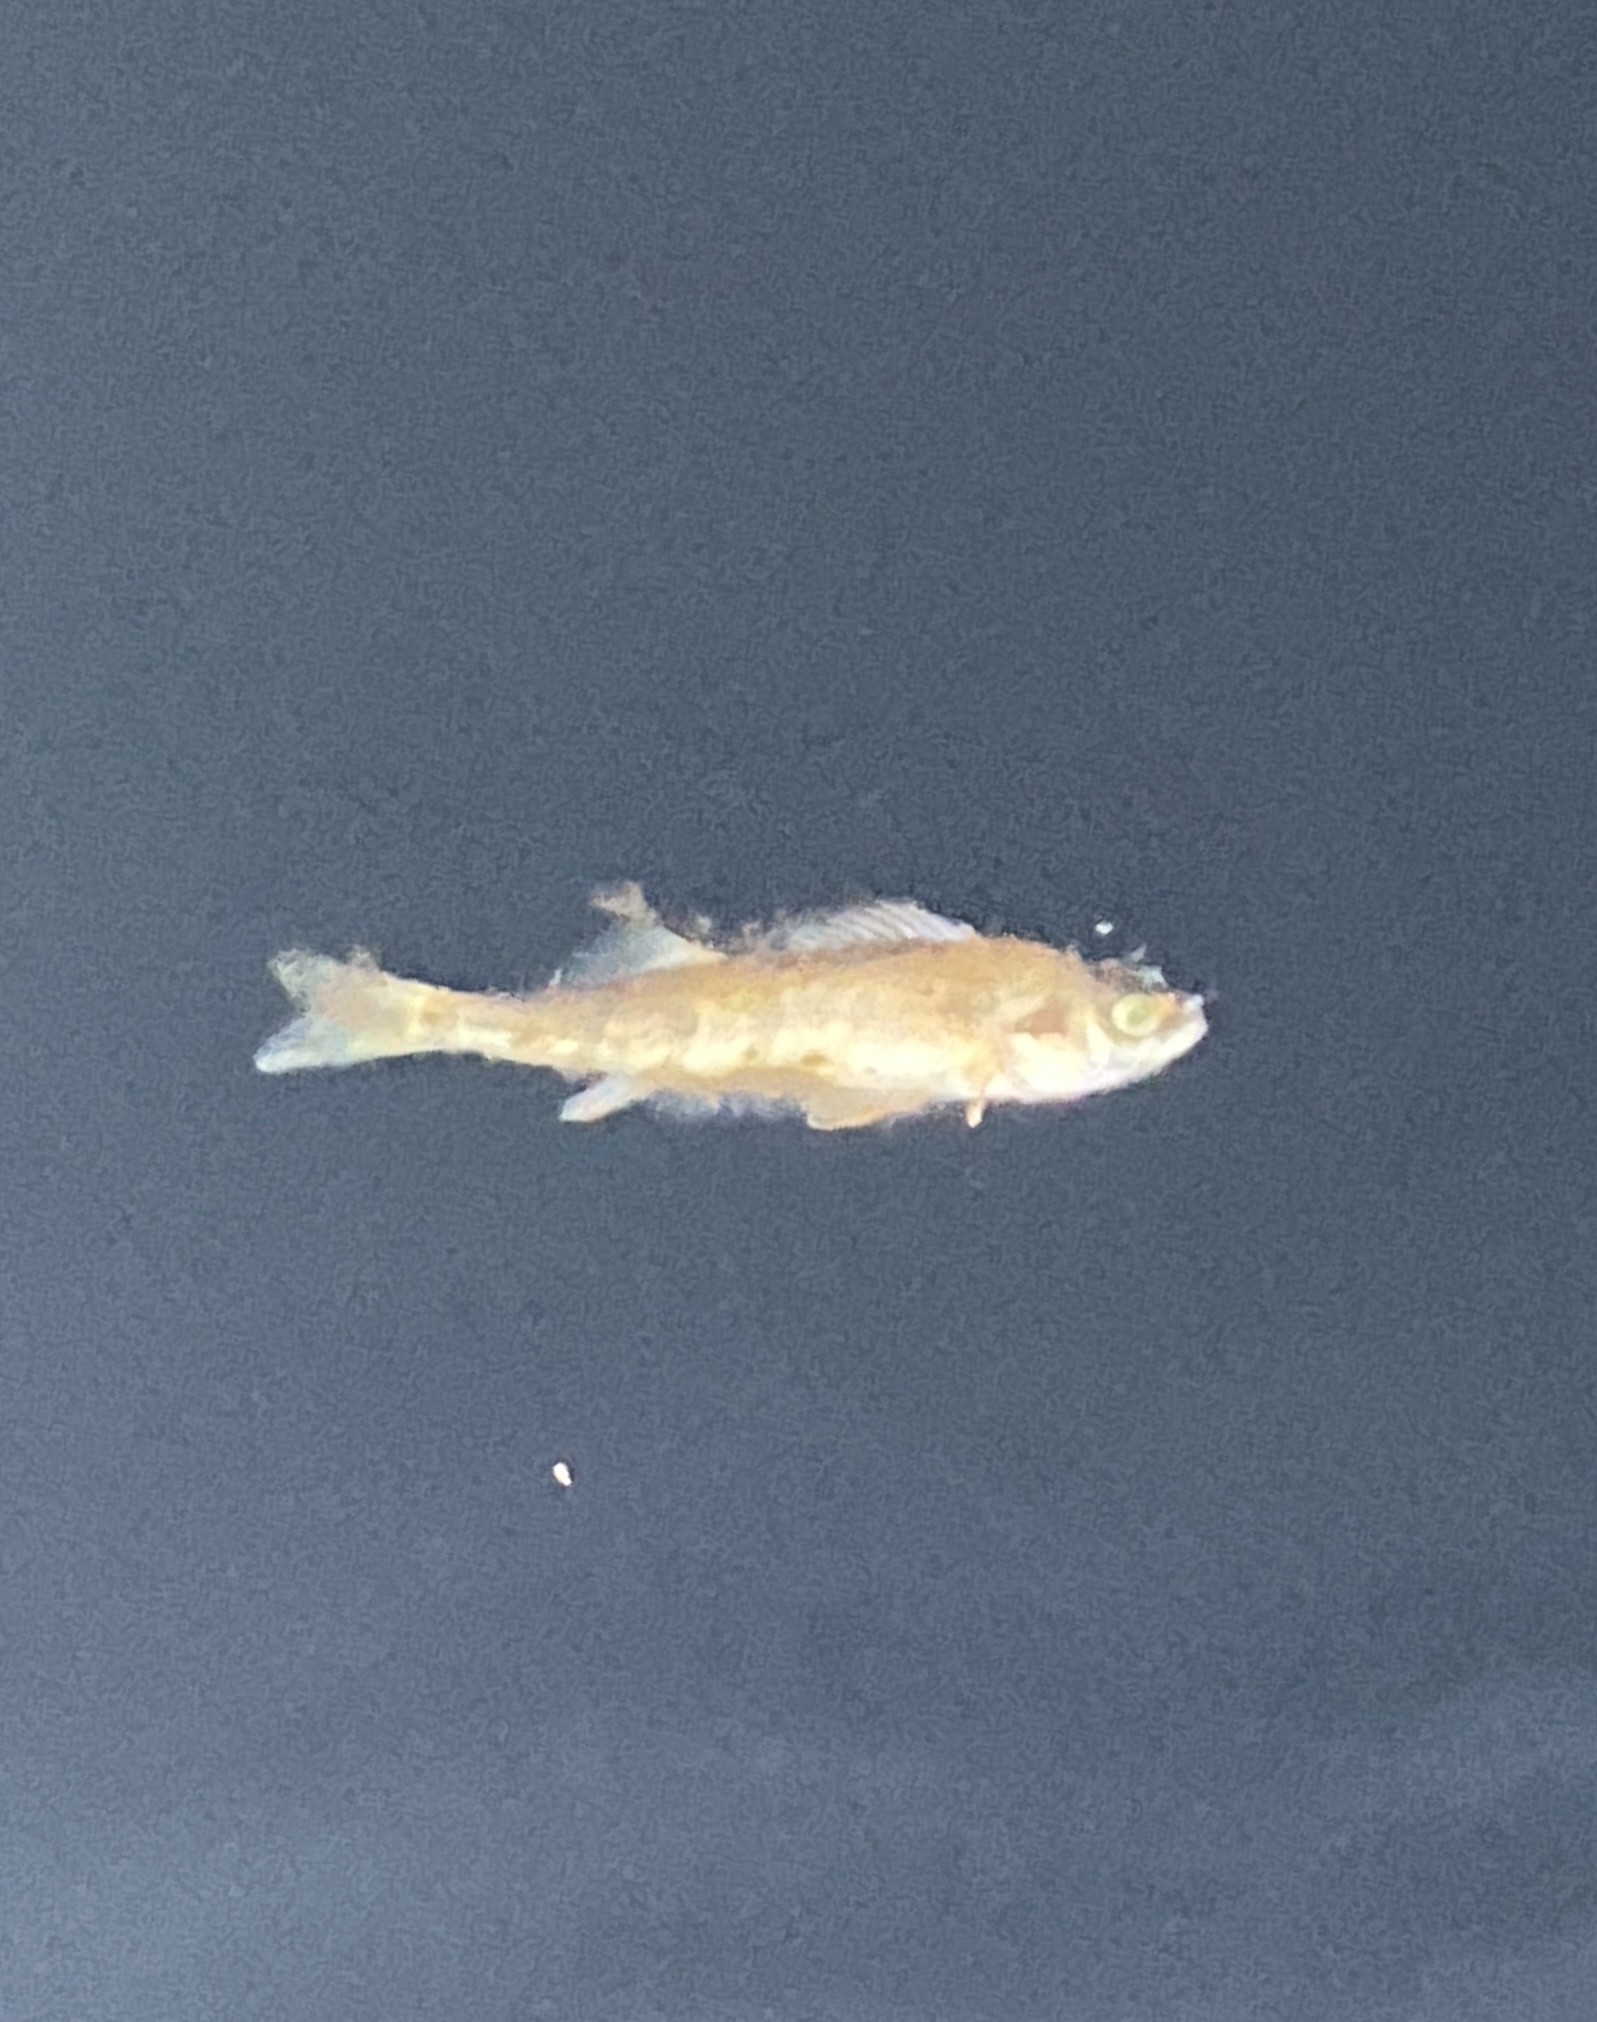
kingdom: Animalia
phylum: Chordata
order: Perciformes
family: Percidae
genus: Perca
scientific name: Perca flavescens
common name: Yellow perch
